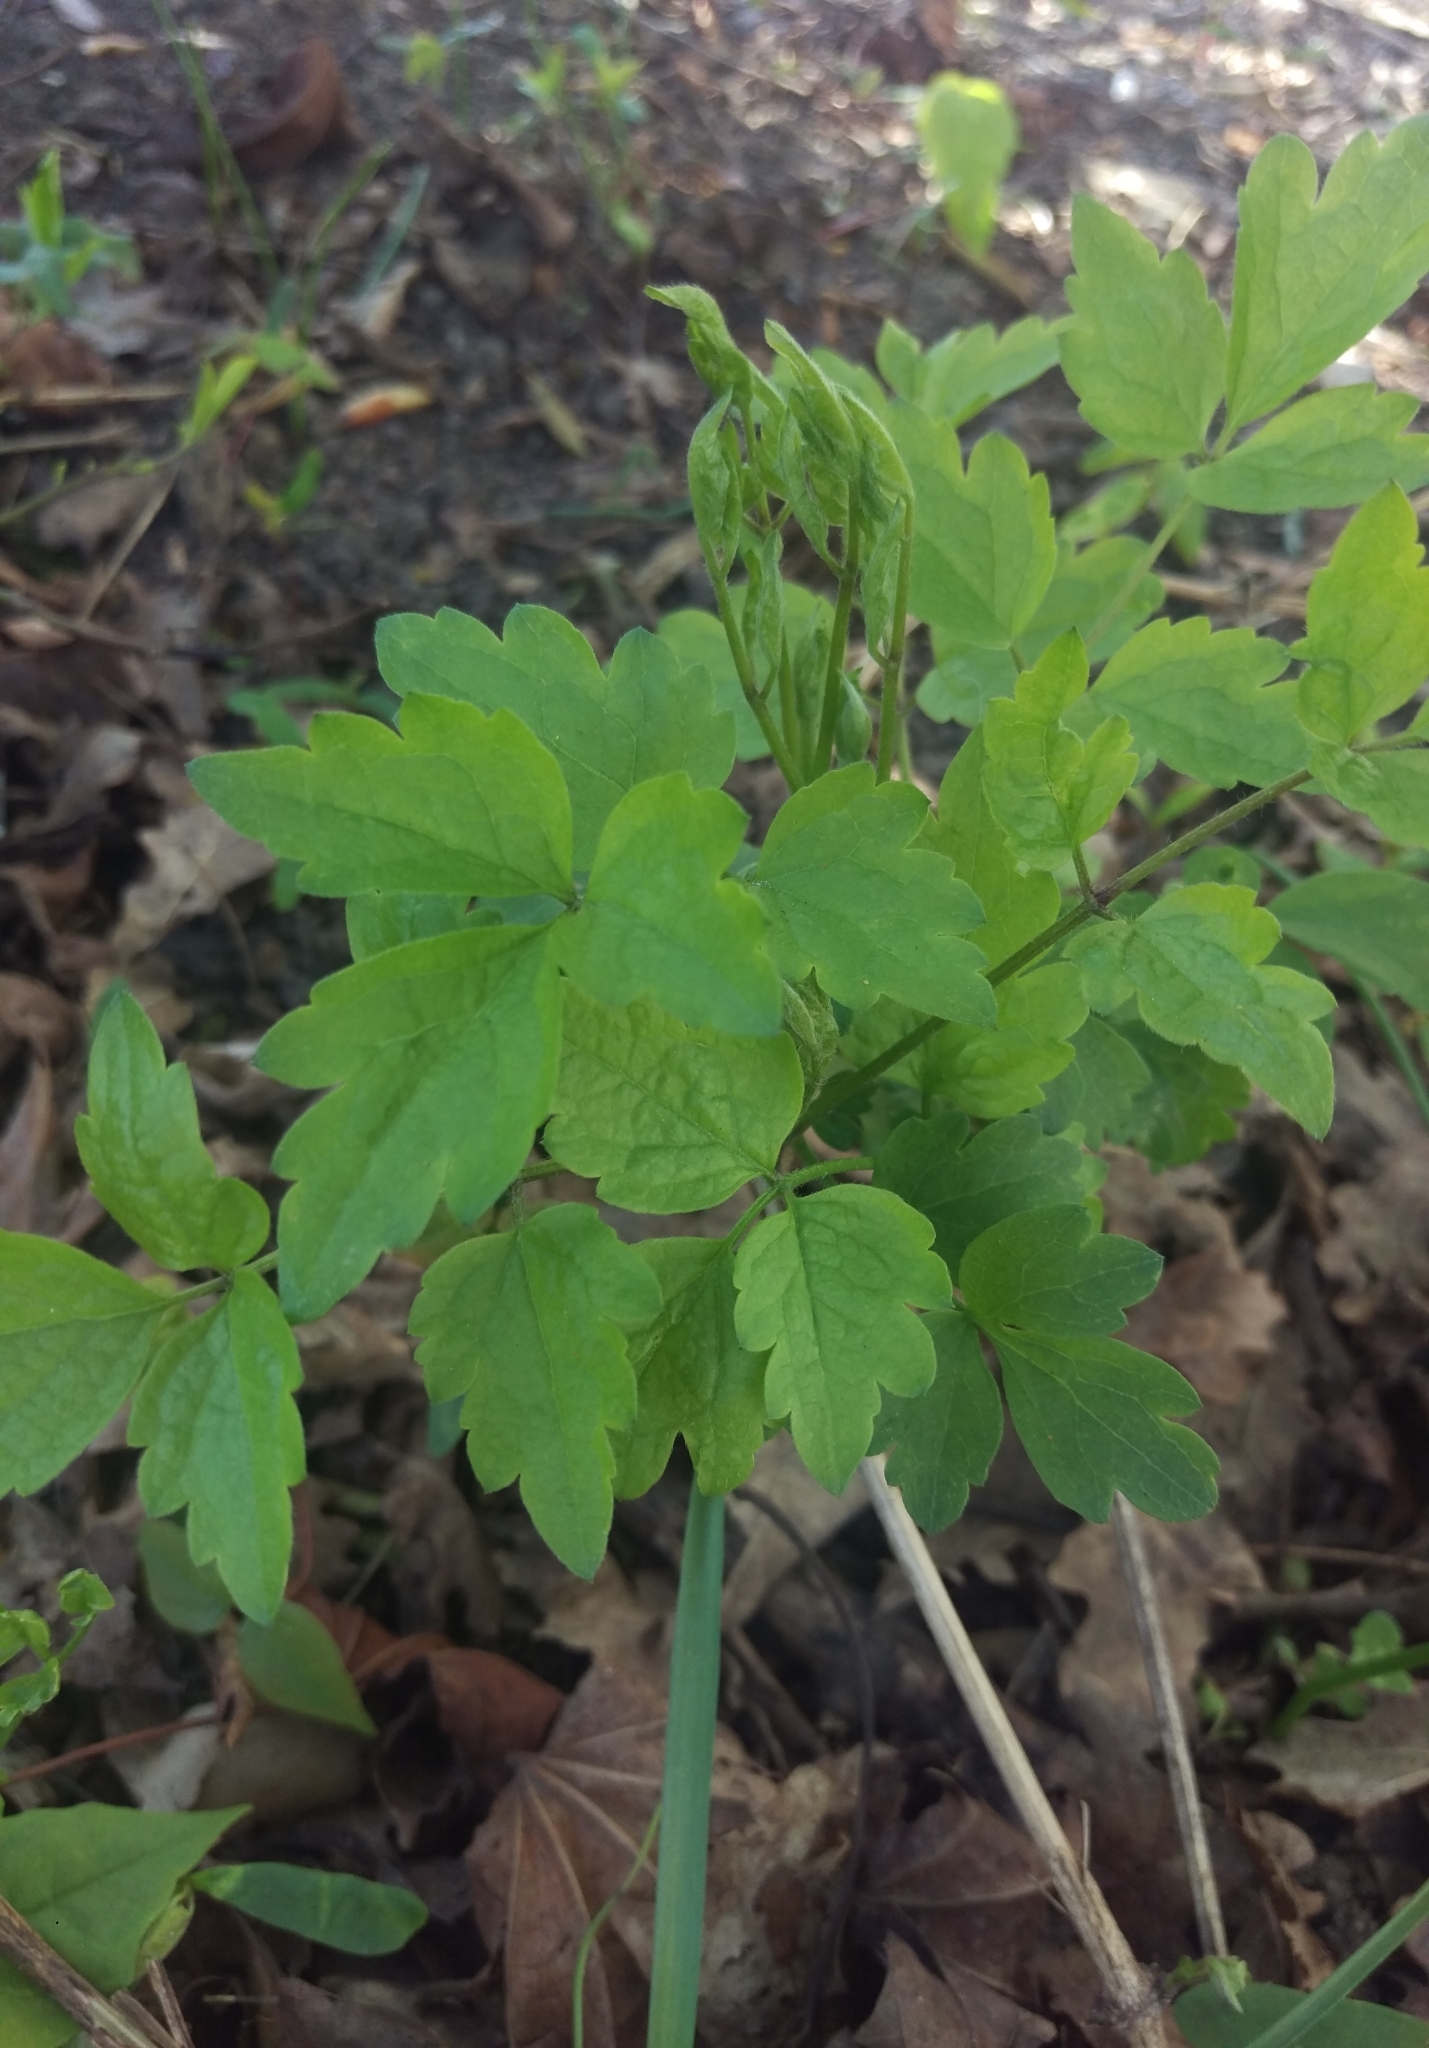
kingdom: Plantae
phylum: Tracheophyta
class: Magnoliopsida
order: Ranunculales
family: Ranunculaceae
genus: Clematis
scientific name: Clematis vitalba
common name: Evergreen clematis
